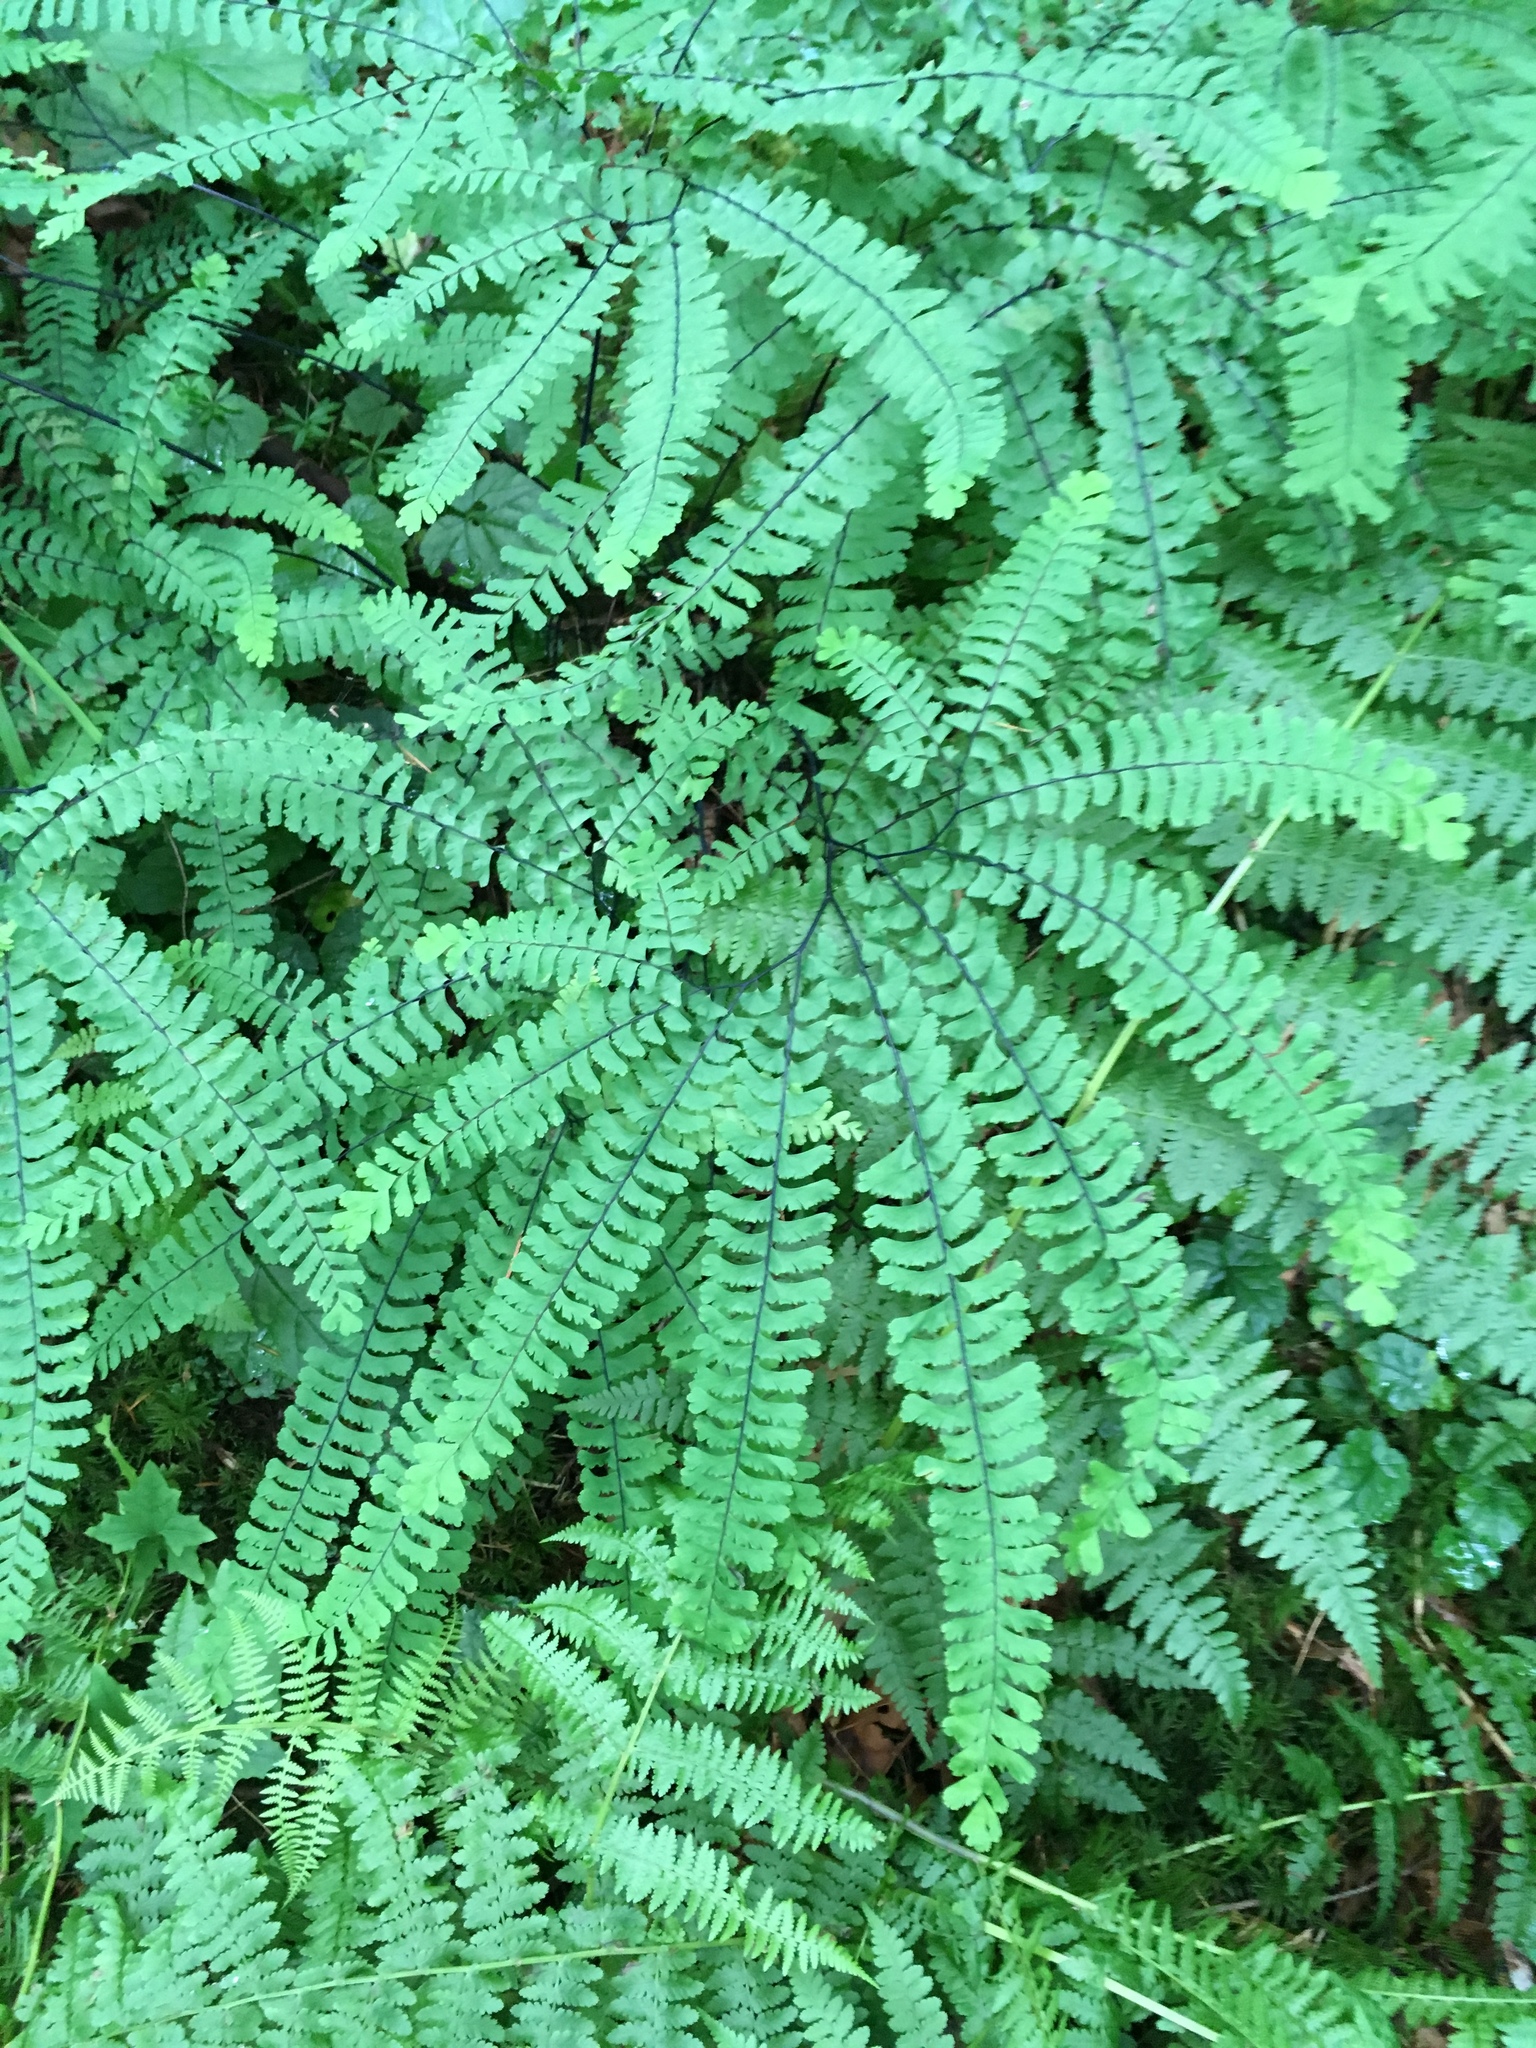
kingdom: Plantae
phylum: Tracheophyta
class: Polypodiopsida
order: Polypodiales
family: Pteridaceae
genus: Adiantum
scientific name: Adiantum aleuticum
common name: Aleutian maidenhair fern
